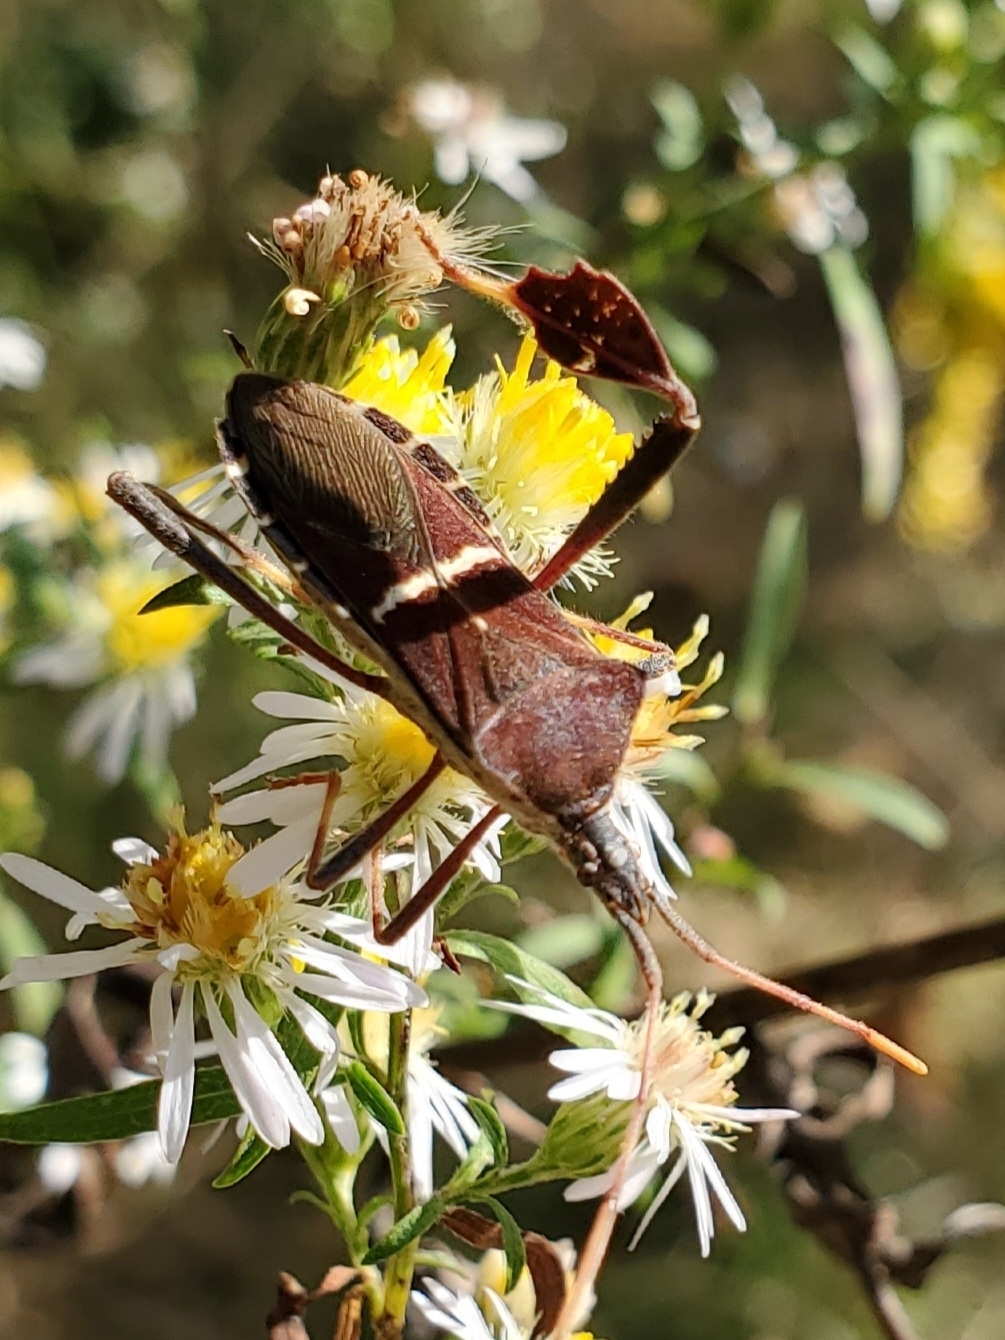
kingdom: Animalia
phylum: Arthropoda
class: Insecta
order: Hemiptera
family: Coreidae
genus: Leptoglossus
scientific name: Leptoglossus phyllopus
